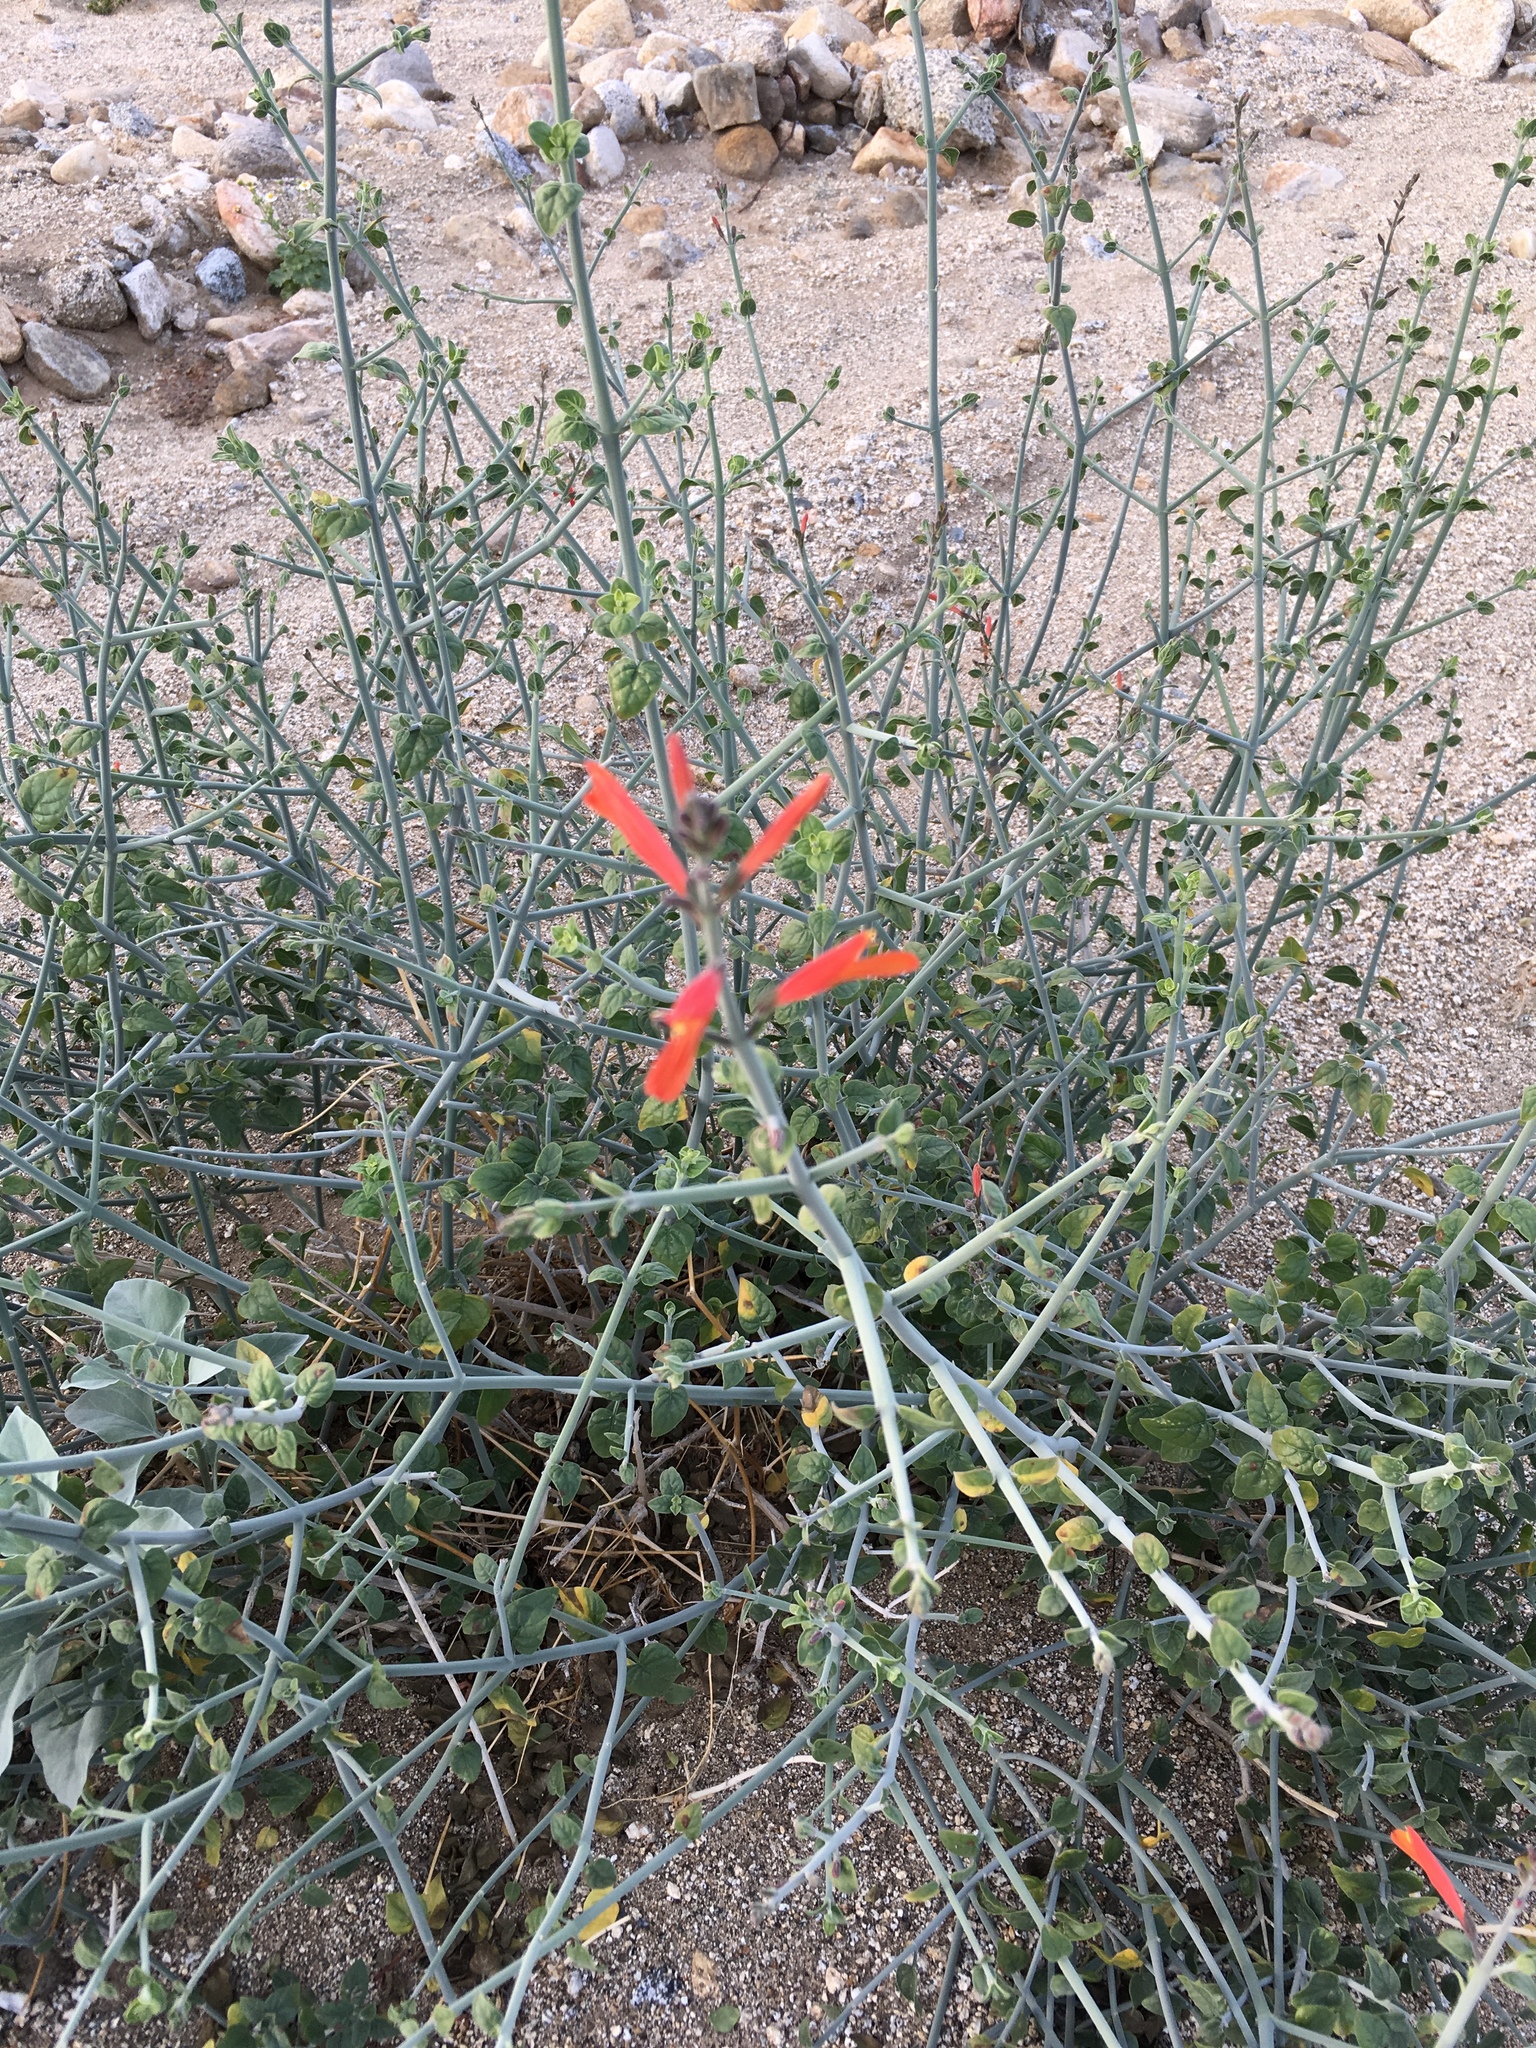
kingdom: Plantae
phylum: Tracheophyta
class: Magnoliopsida
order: Lamiales
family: Acanthaceae
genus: Justicia
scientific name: Justicia californica
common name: Chuparosa-honeysuckle
